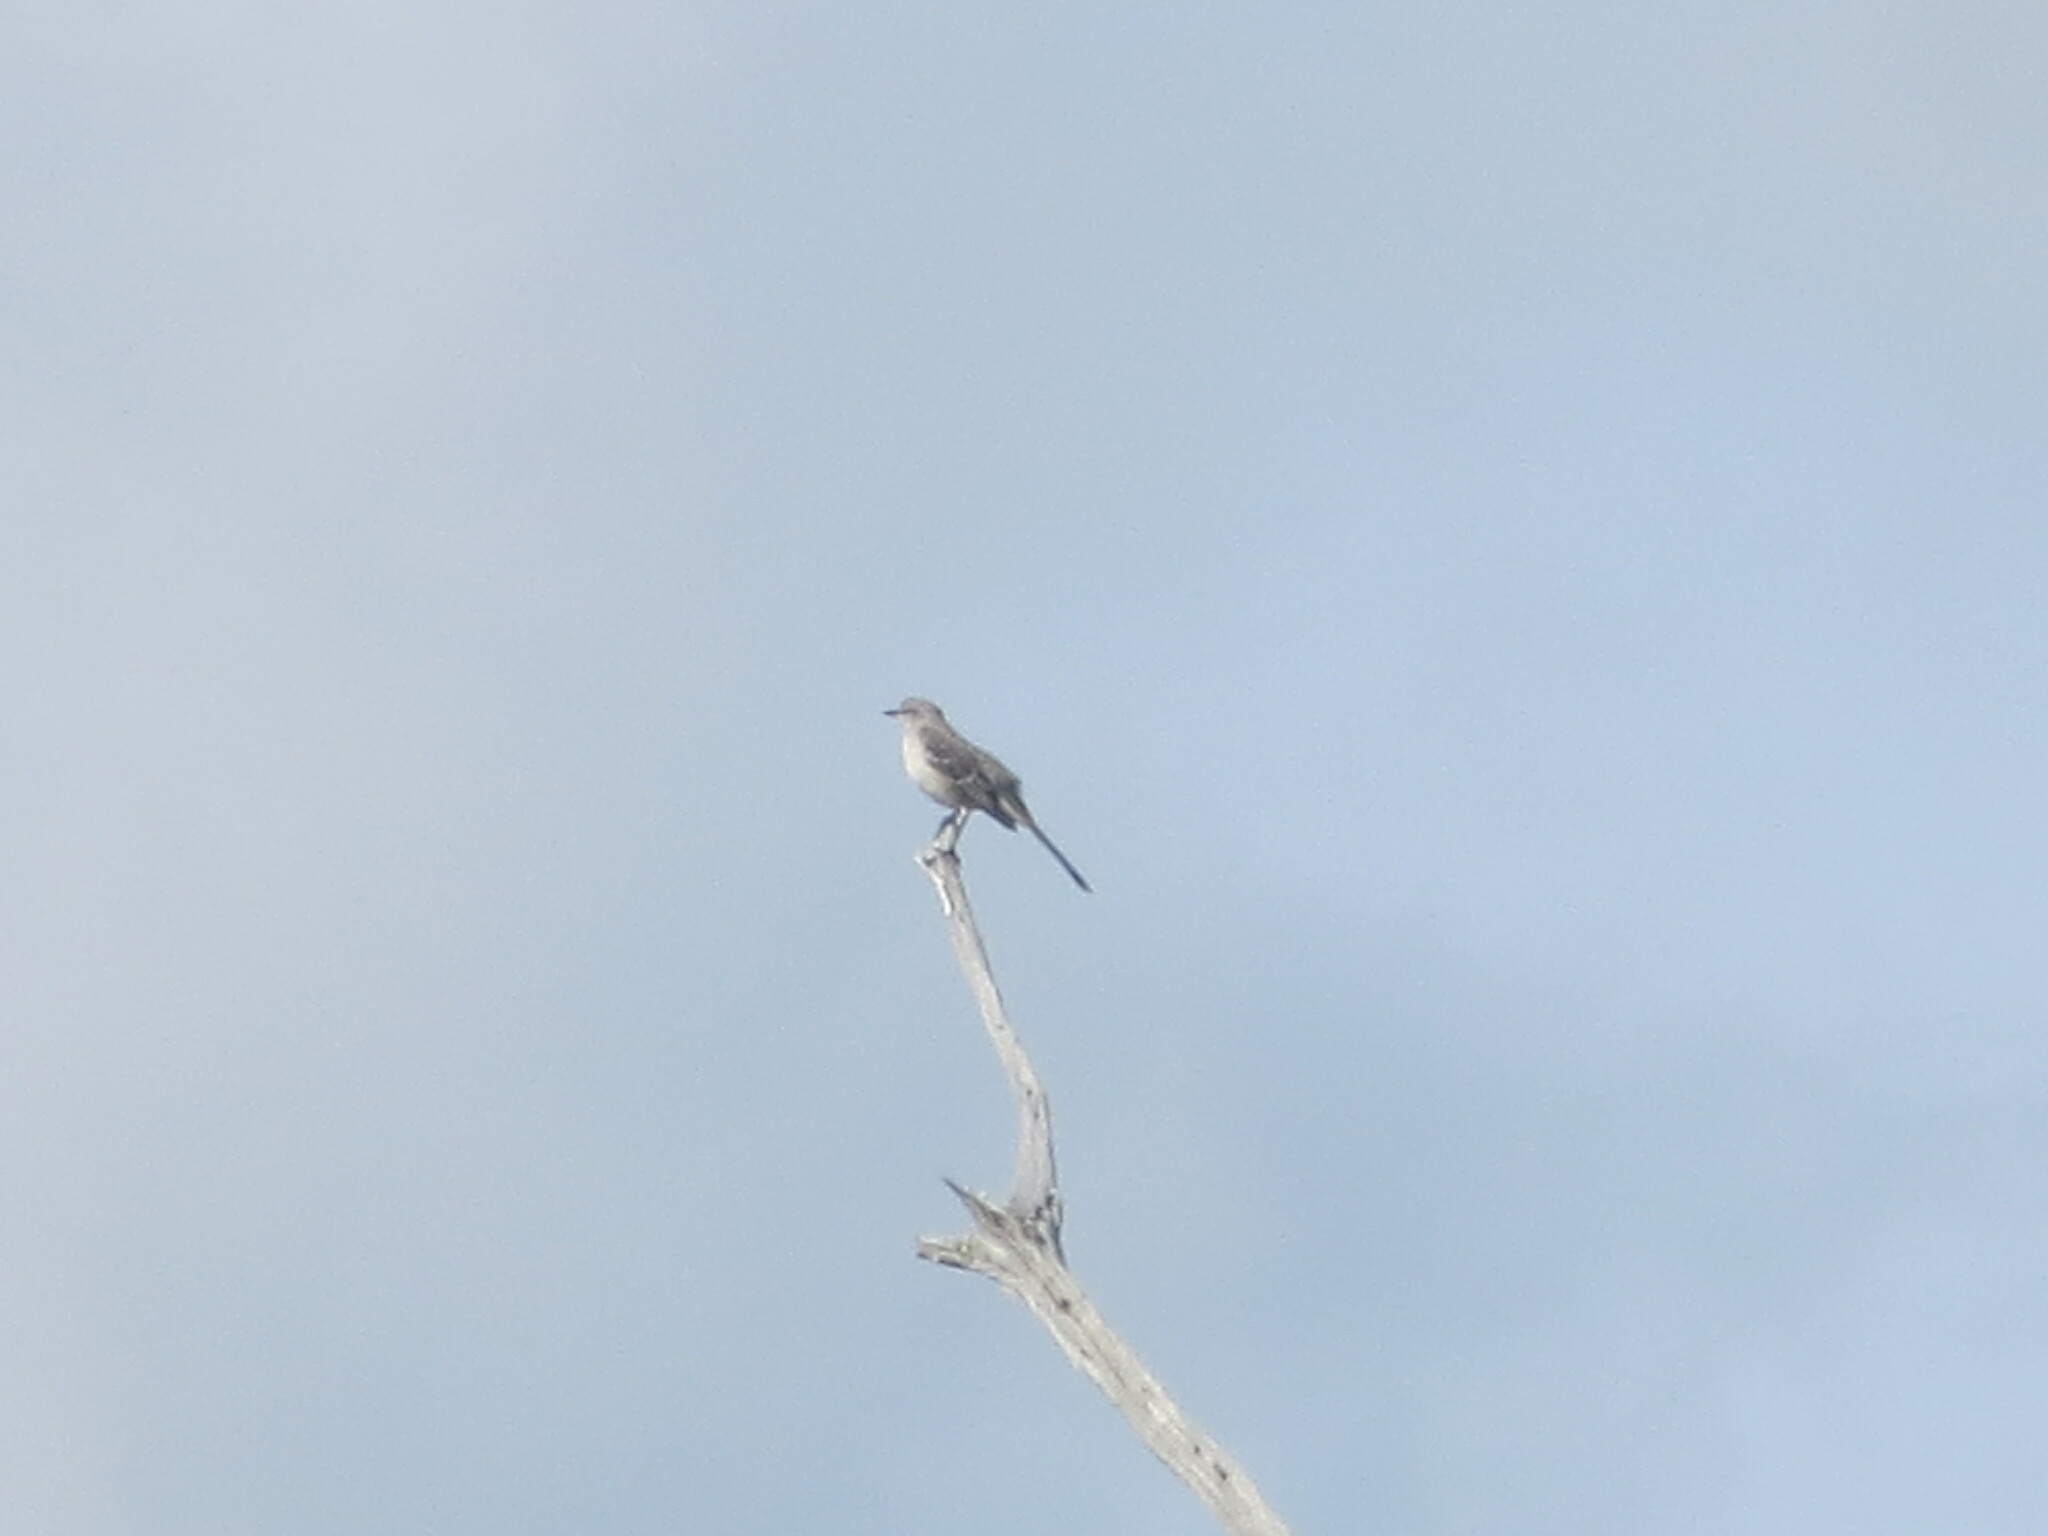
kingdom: Animalia
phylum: Chordata
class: Aves
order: Passeriformes
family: Mimidae
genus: Mimus
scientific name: Mimus polyglottos
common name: Northern mockingbird
